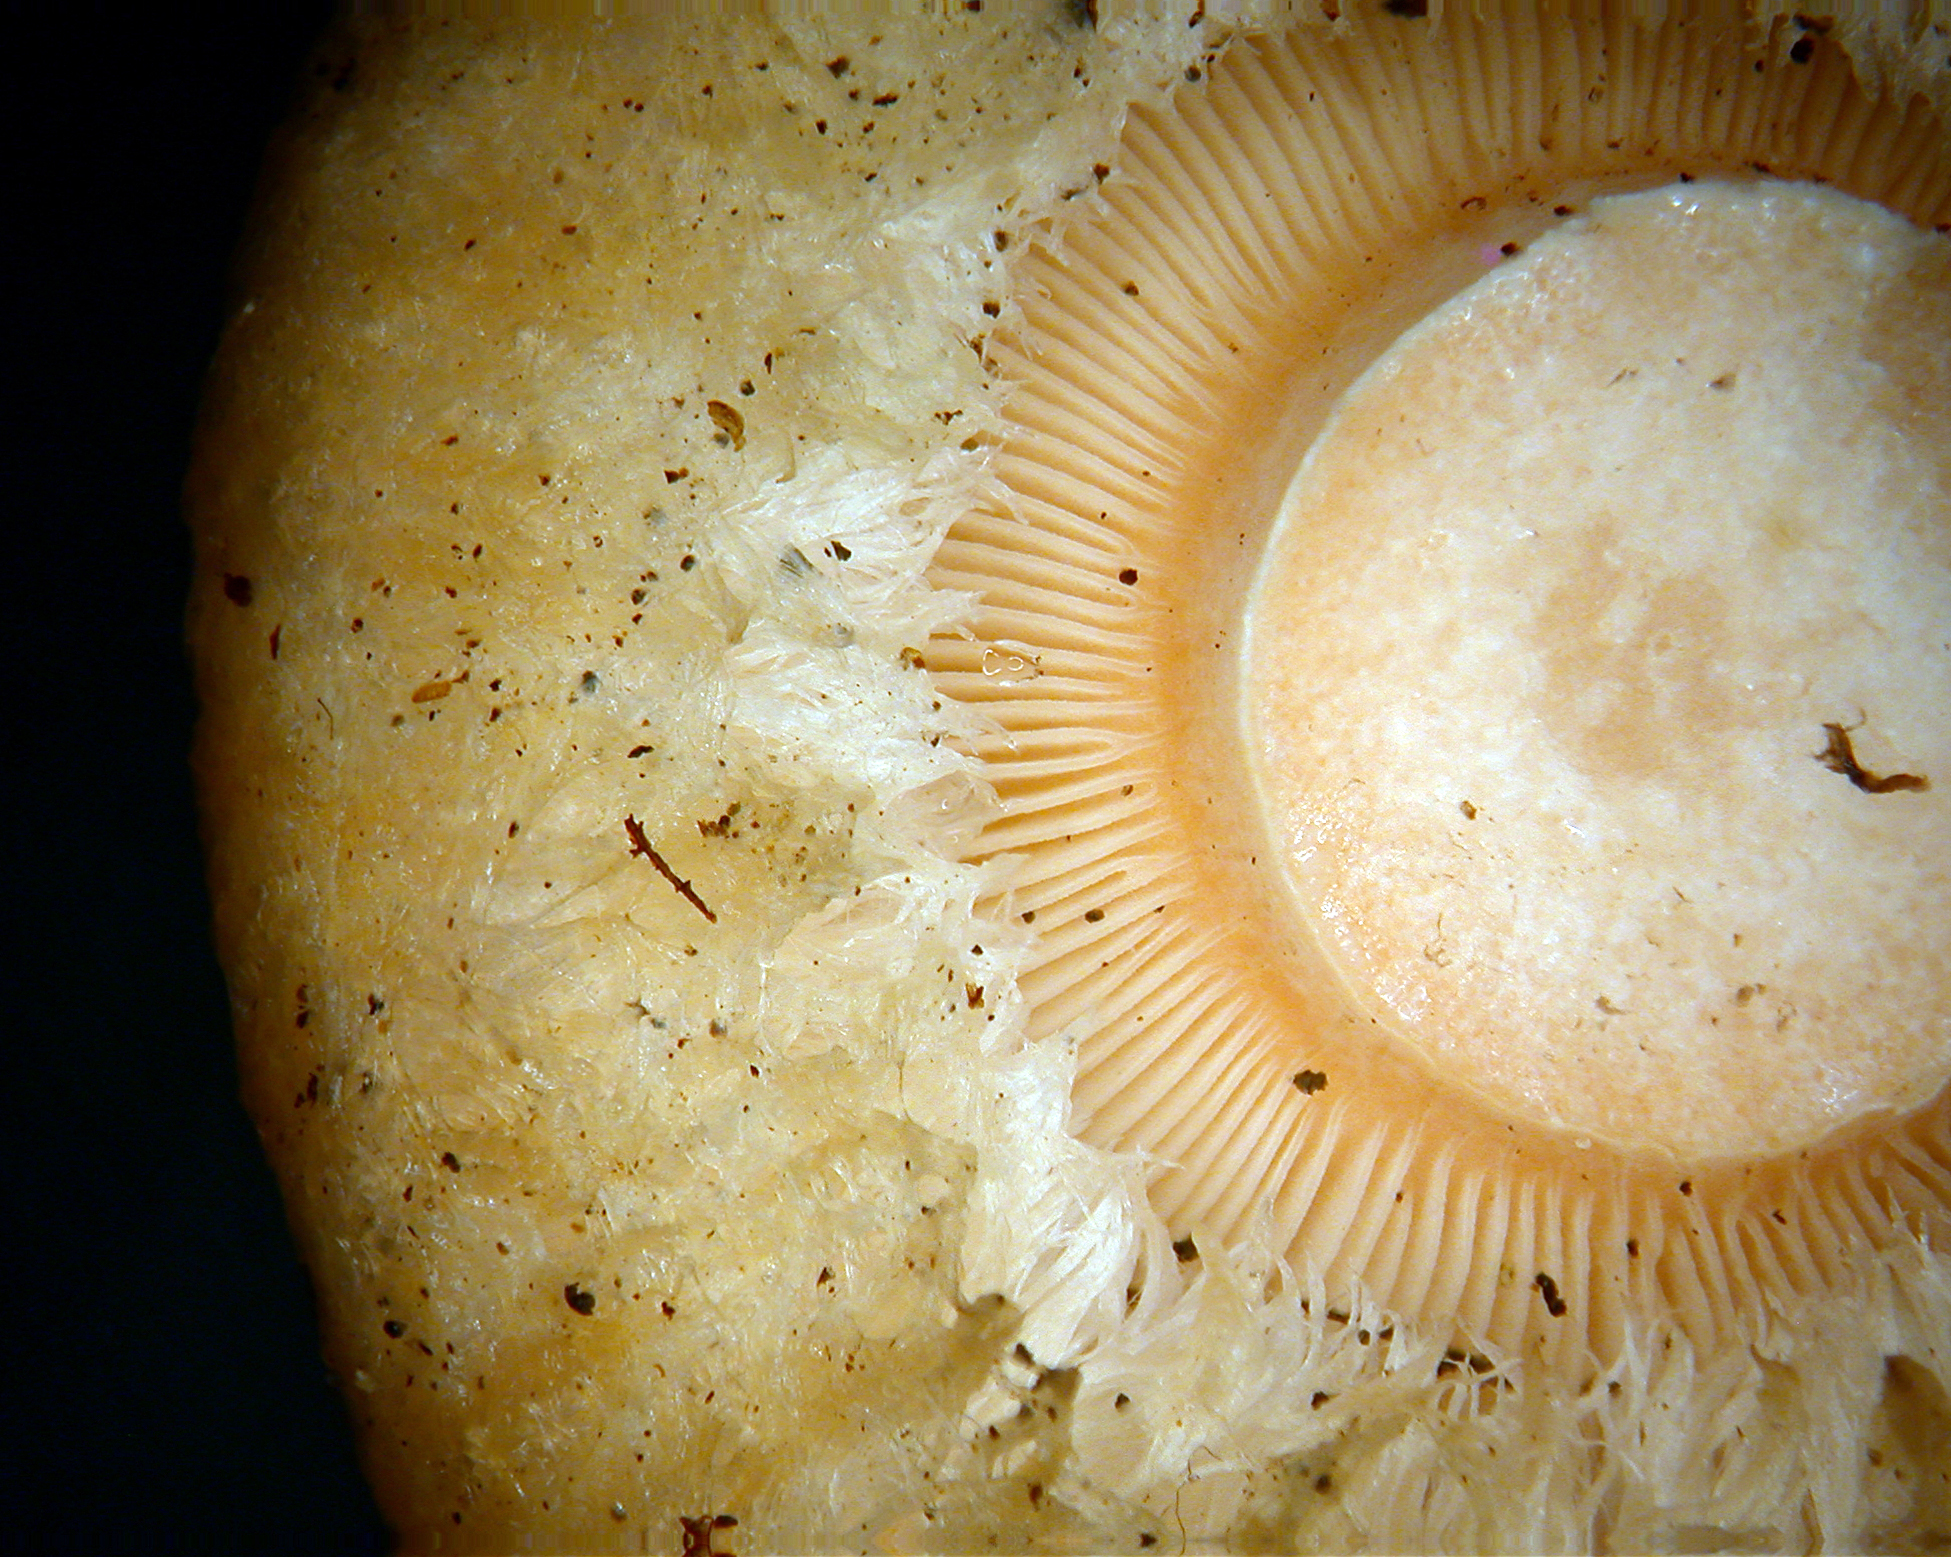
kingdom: Fungi
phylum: Basidiomycota
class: Agaricomycetes
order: Russulales
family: Russulaceae
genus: Lactarius
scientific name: Lactarius pubescens
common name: Bearded milkcap
